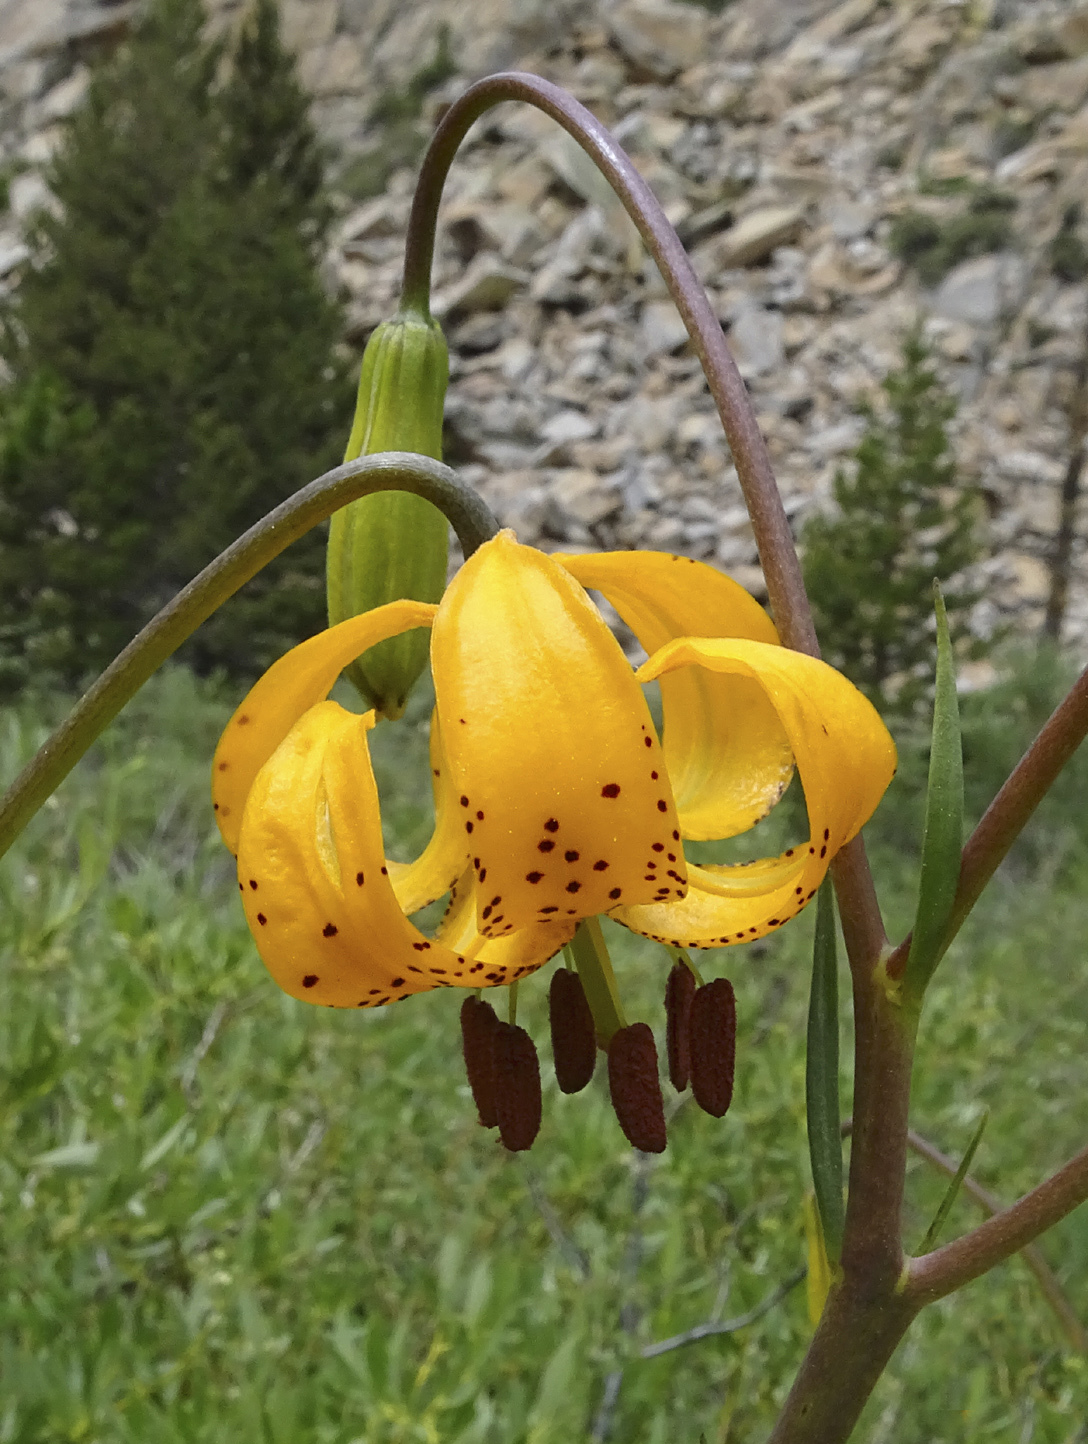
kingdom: Plantae
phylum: Tracheophyta
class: Liliopsida
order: Liliales
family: Liliaceae
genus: Lilium
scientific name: Lilium kelleyanum
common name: Kelley's lily
